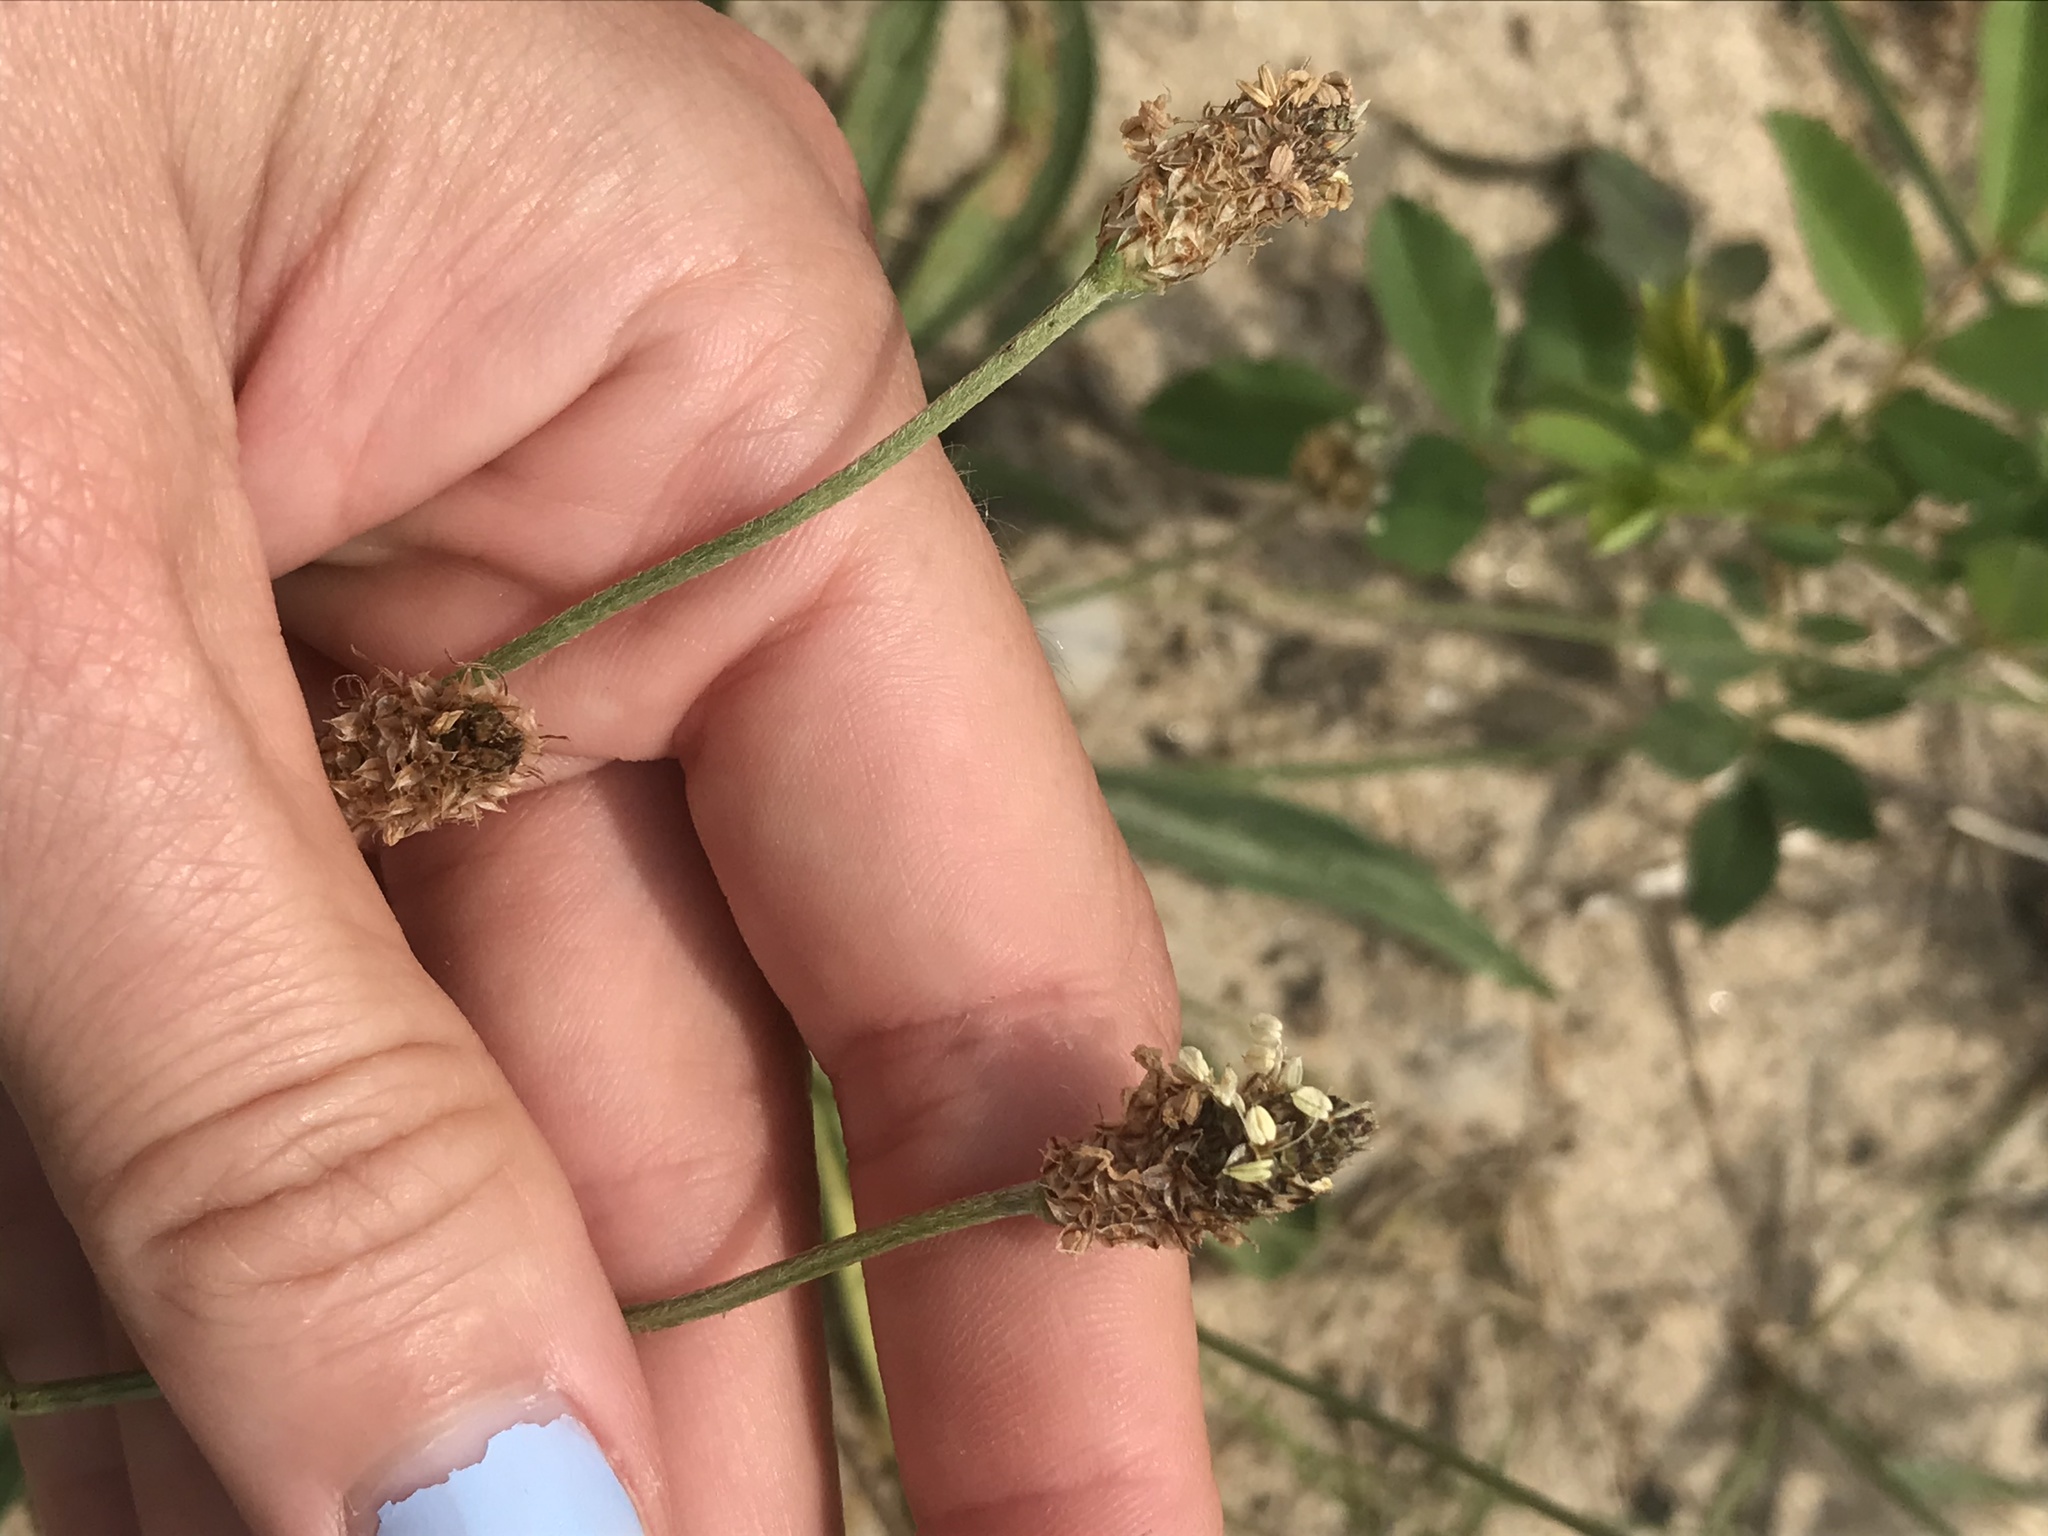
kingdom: Plantae
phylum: Tracheophyta
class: Magnoliopsida
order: Lamiales
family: Plantaginaceae
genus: Plantago
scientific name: Plantago lanceolata
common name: Ribwort plantain
